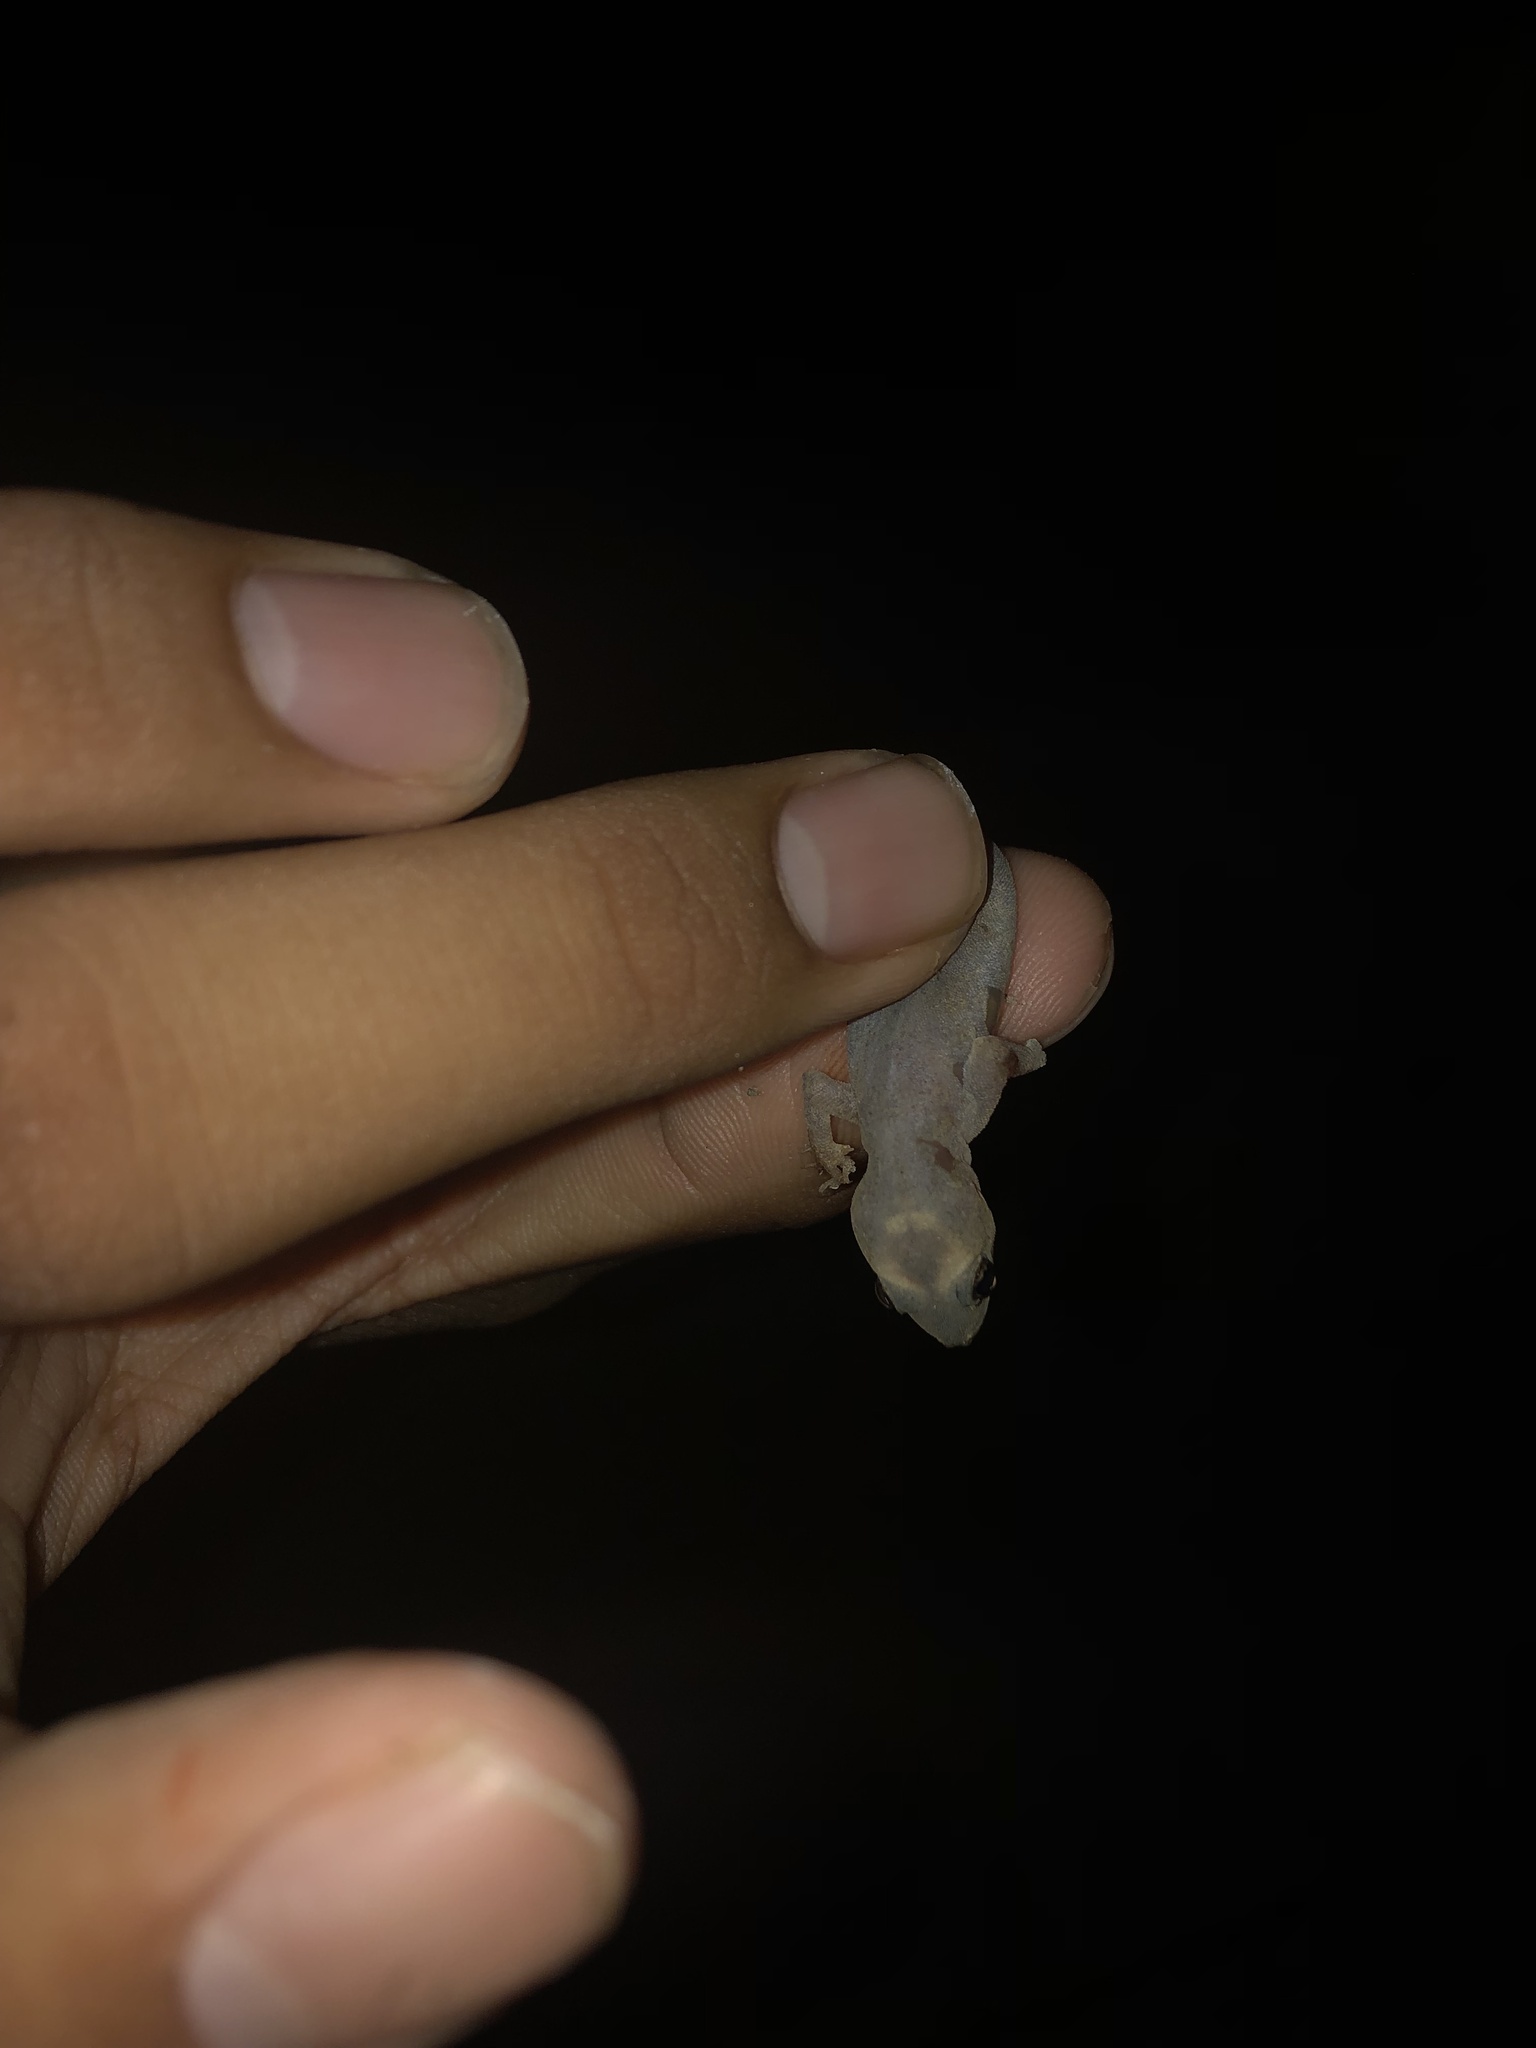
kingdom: Animalia
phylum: Chordata
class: Squamata
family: Gekkonidae
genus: Hemidactylus
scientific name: Hemidactylus frenatus
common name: Common house gecko
